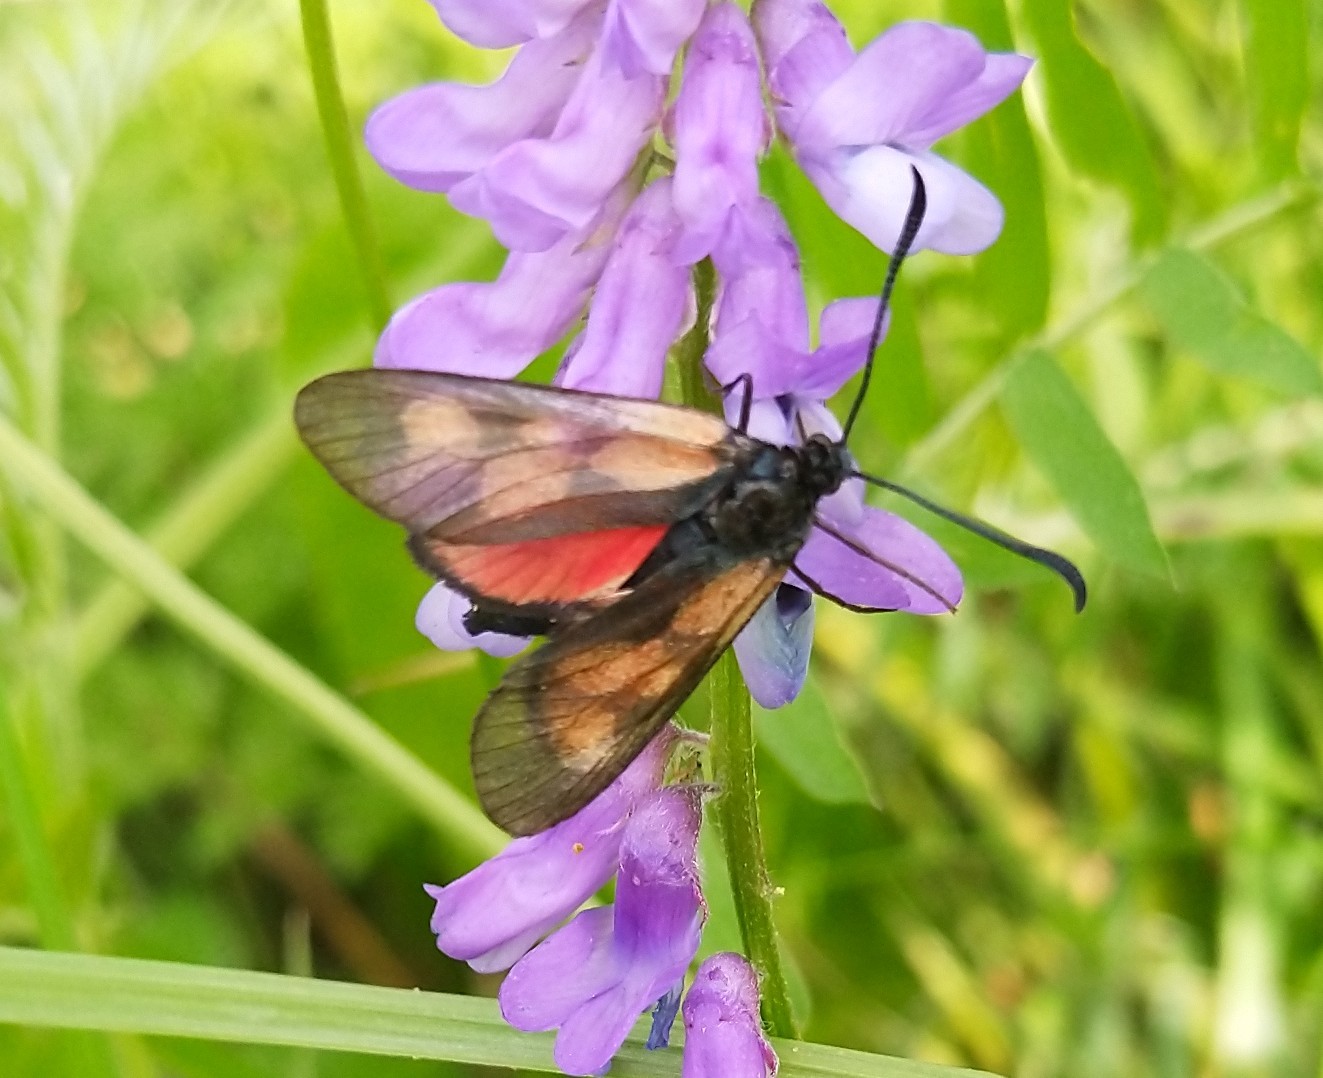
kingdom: Animalia
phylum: Arthropoda
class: Insecta
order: Lepidoptera
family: Zygaenidae
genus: Zygaena
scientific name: Zygaena viciae
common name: New forest burnet
